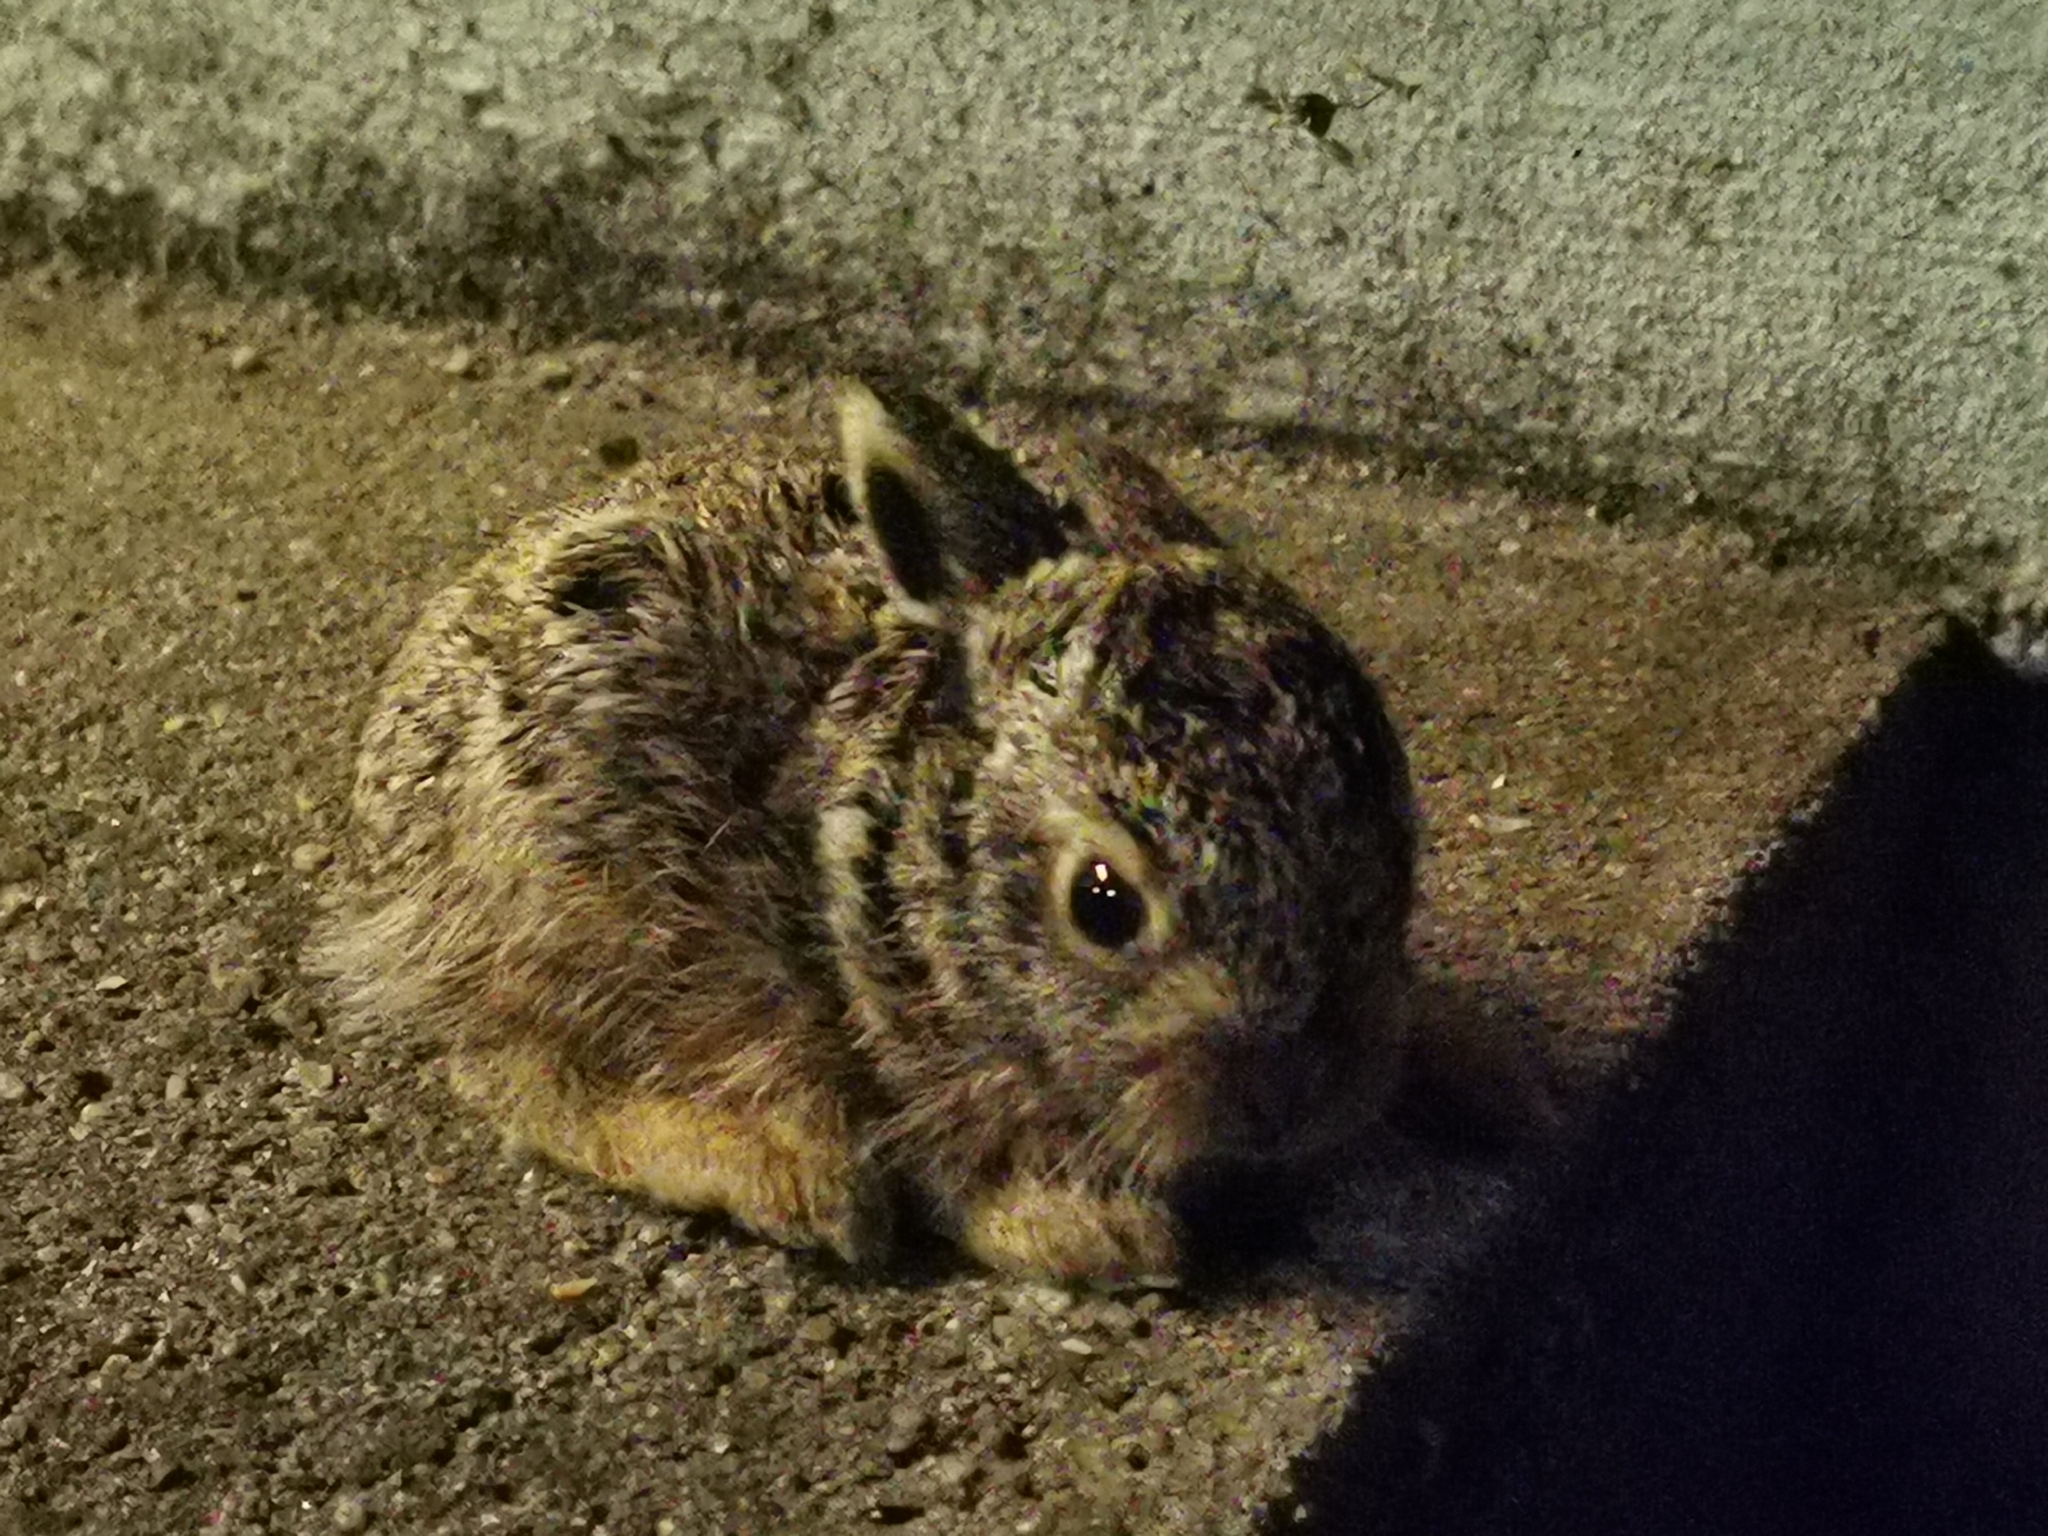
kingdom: Animalia
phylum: Chordata
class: Mammalia
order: Lagomorpha
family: Leporidae
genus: Lepus
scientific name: Lepus europaeus
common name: European hare
